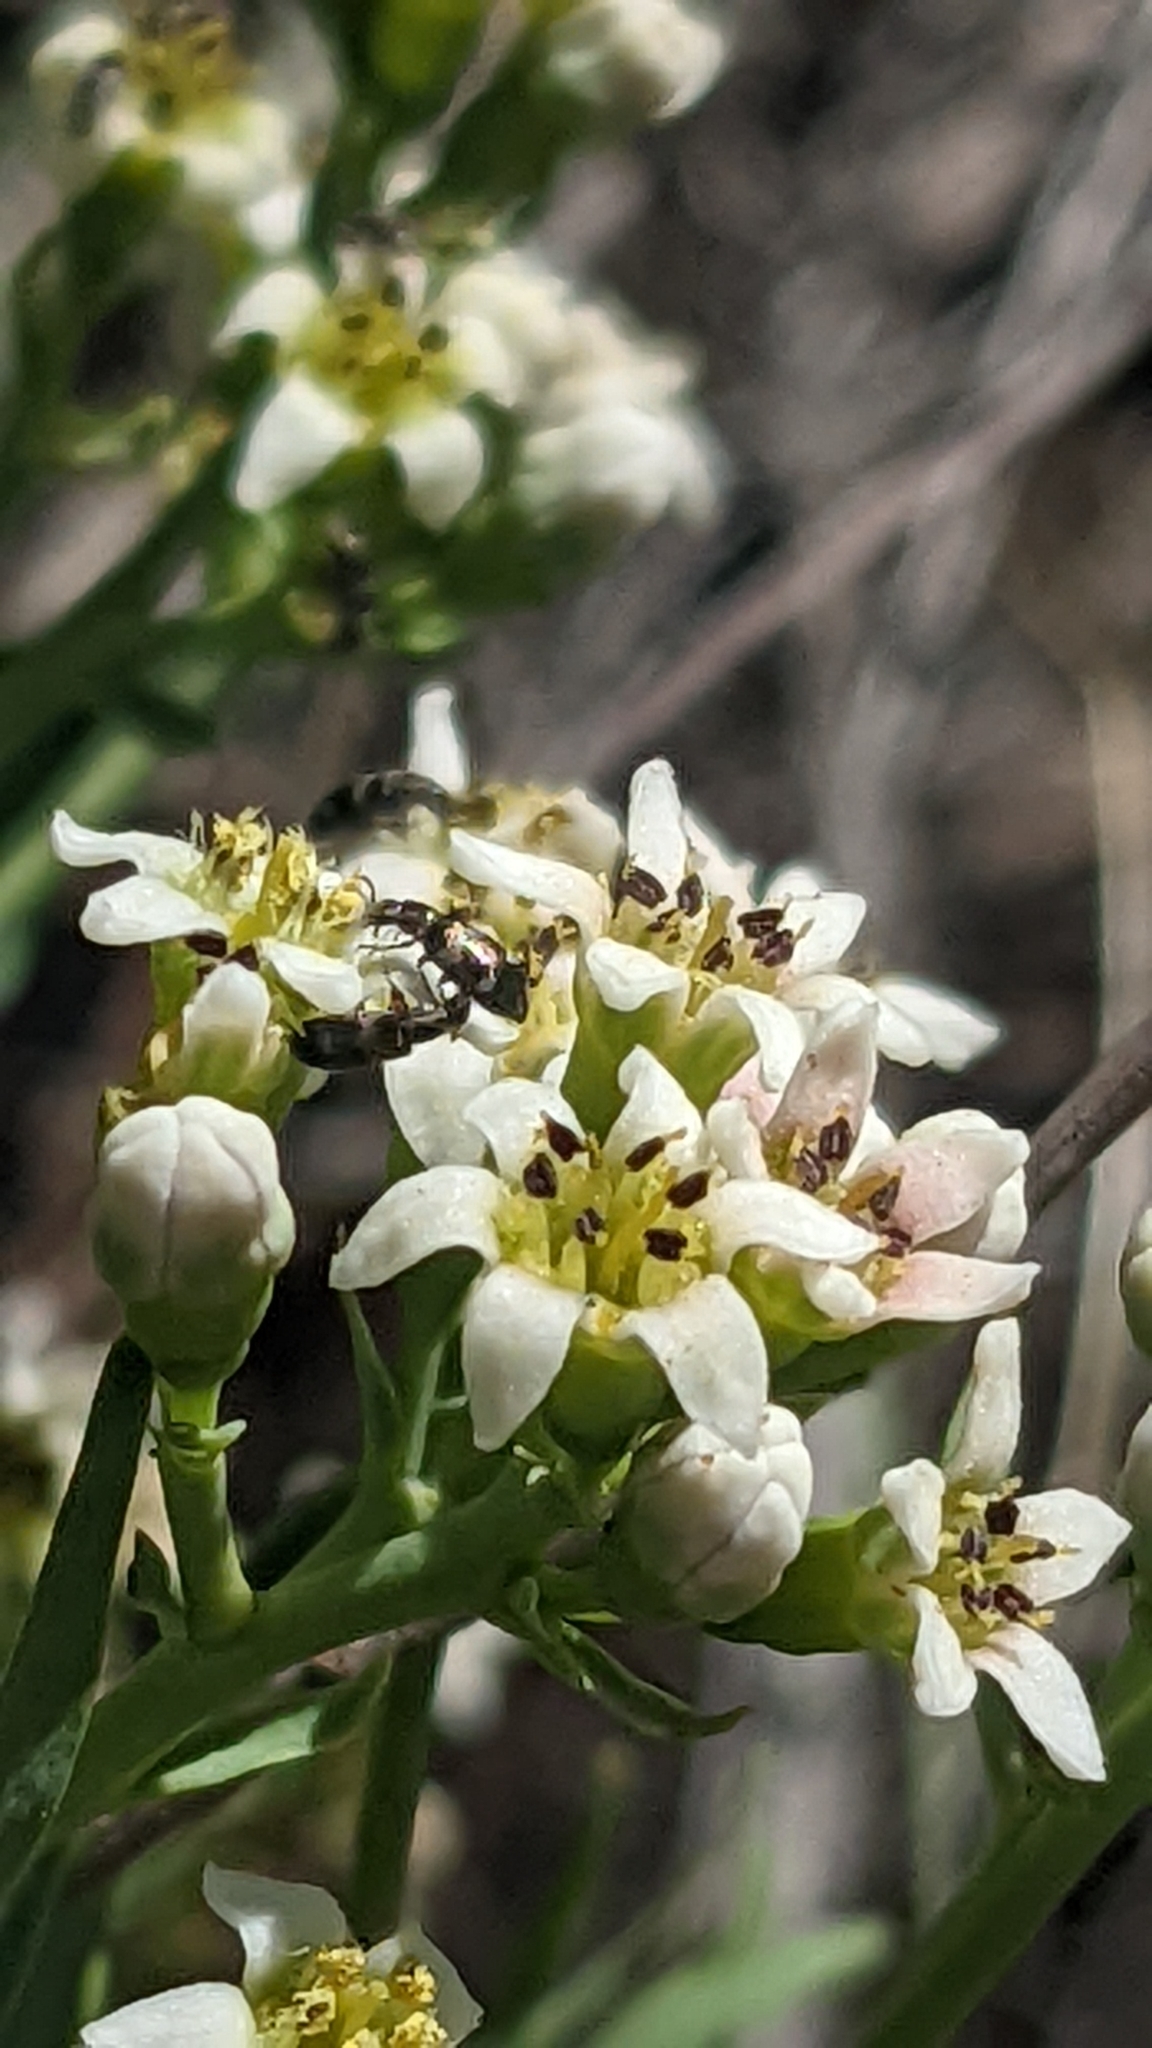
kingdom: Plantae
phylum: Tracheophyta
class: Magnoliopsida
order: Santalales
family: Comandraceae
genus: Comandra
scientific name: Comandra umbellata
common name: Bastard toadflax
